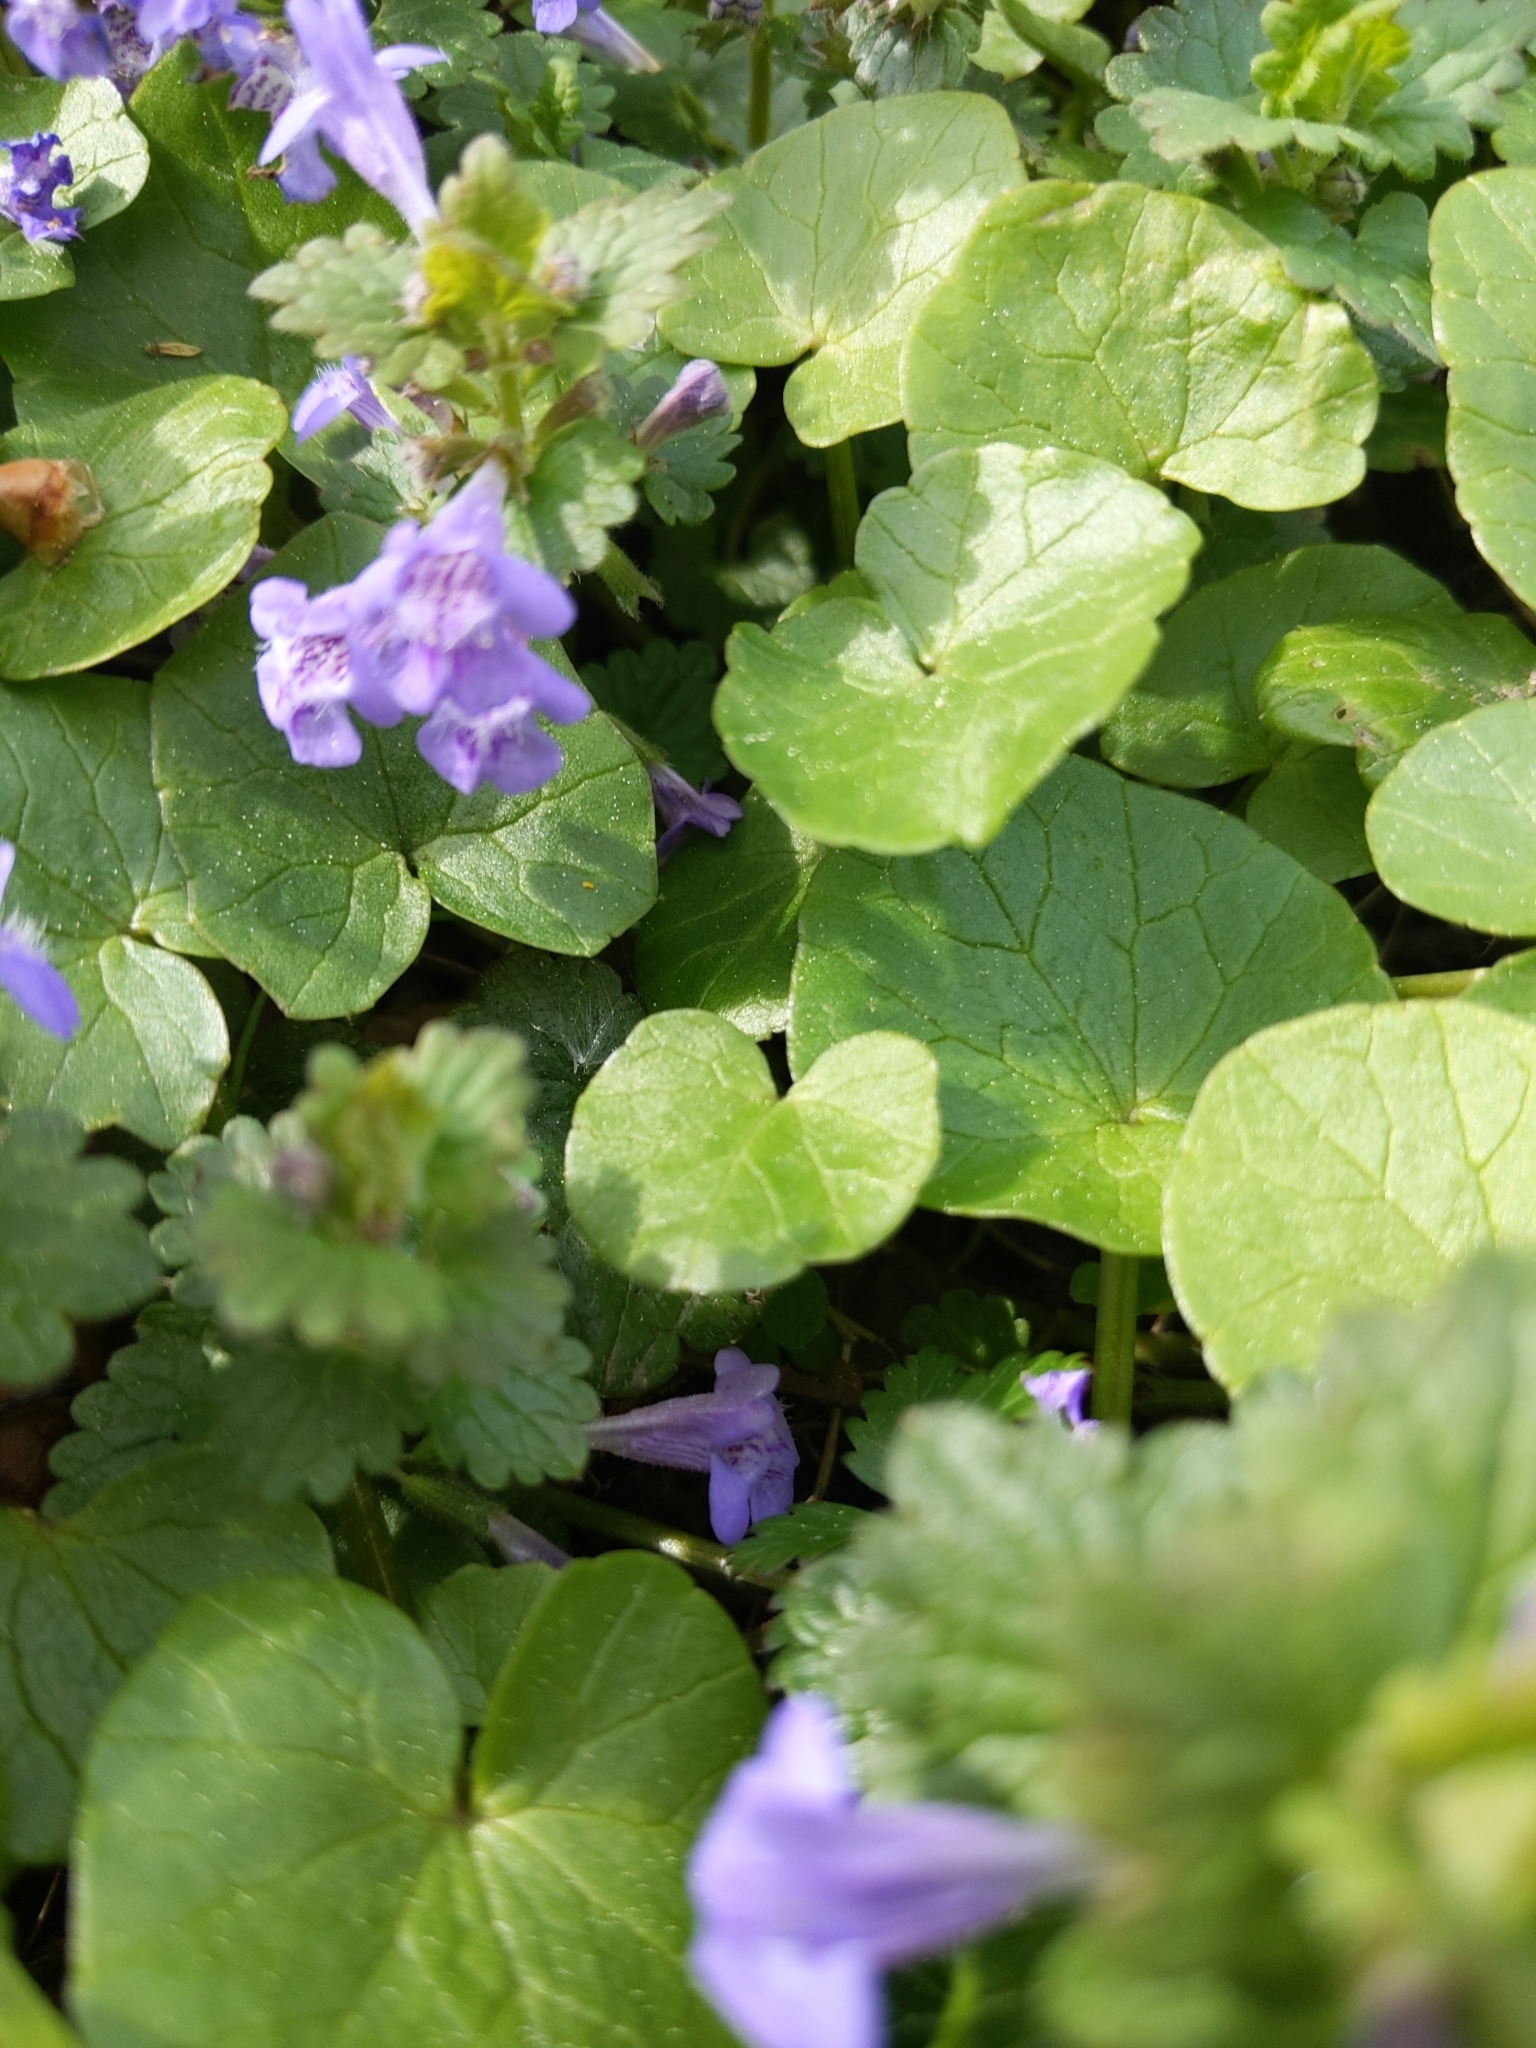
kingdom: Plantae
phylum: Tracheophyta
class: Magnoliopsida
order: Lamiales
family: Lamiaceae
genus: Glechoma
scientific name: Glechoma hederacea
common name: Ground ivy
